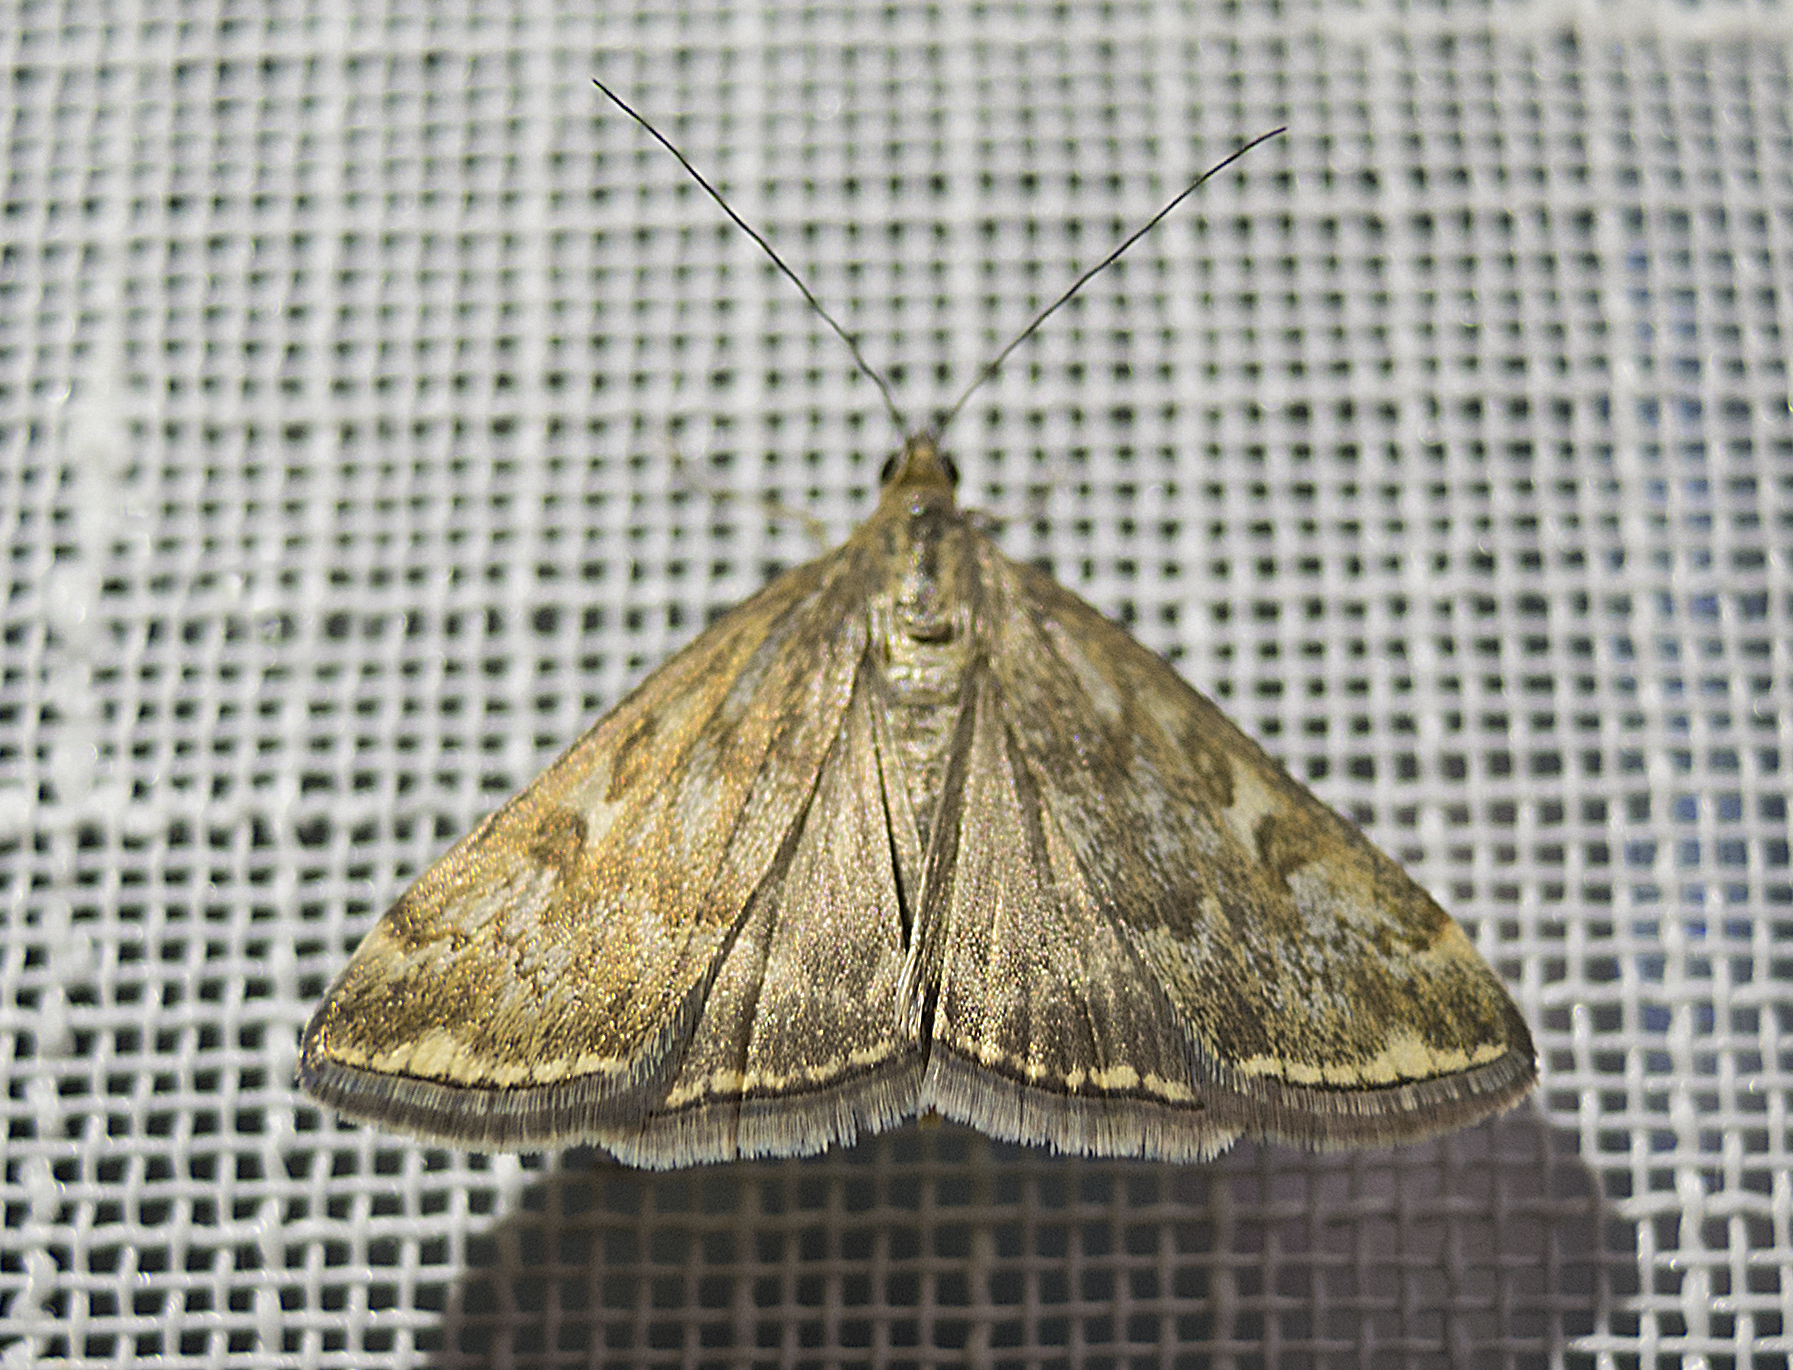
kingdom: Animalia
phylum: Arthropoda
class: Insecta
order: Lepidoptera
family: Crambidae
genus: Loxostege
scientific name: Loxostege sticticalis
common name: Crambid moth
